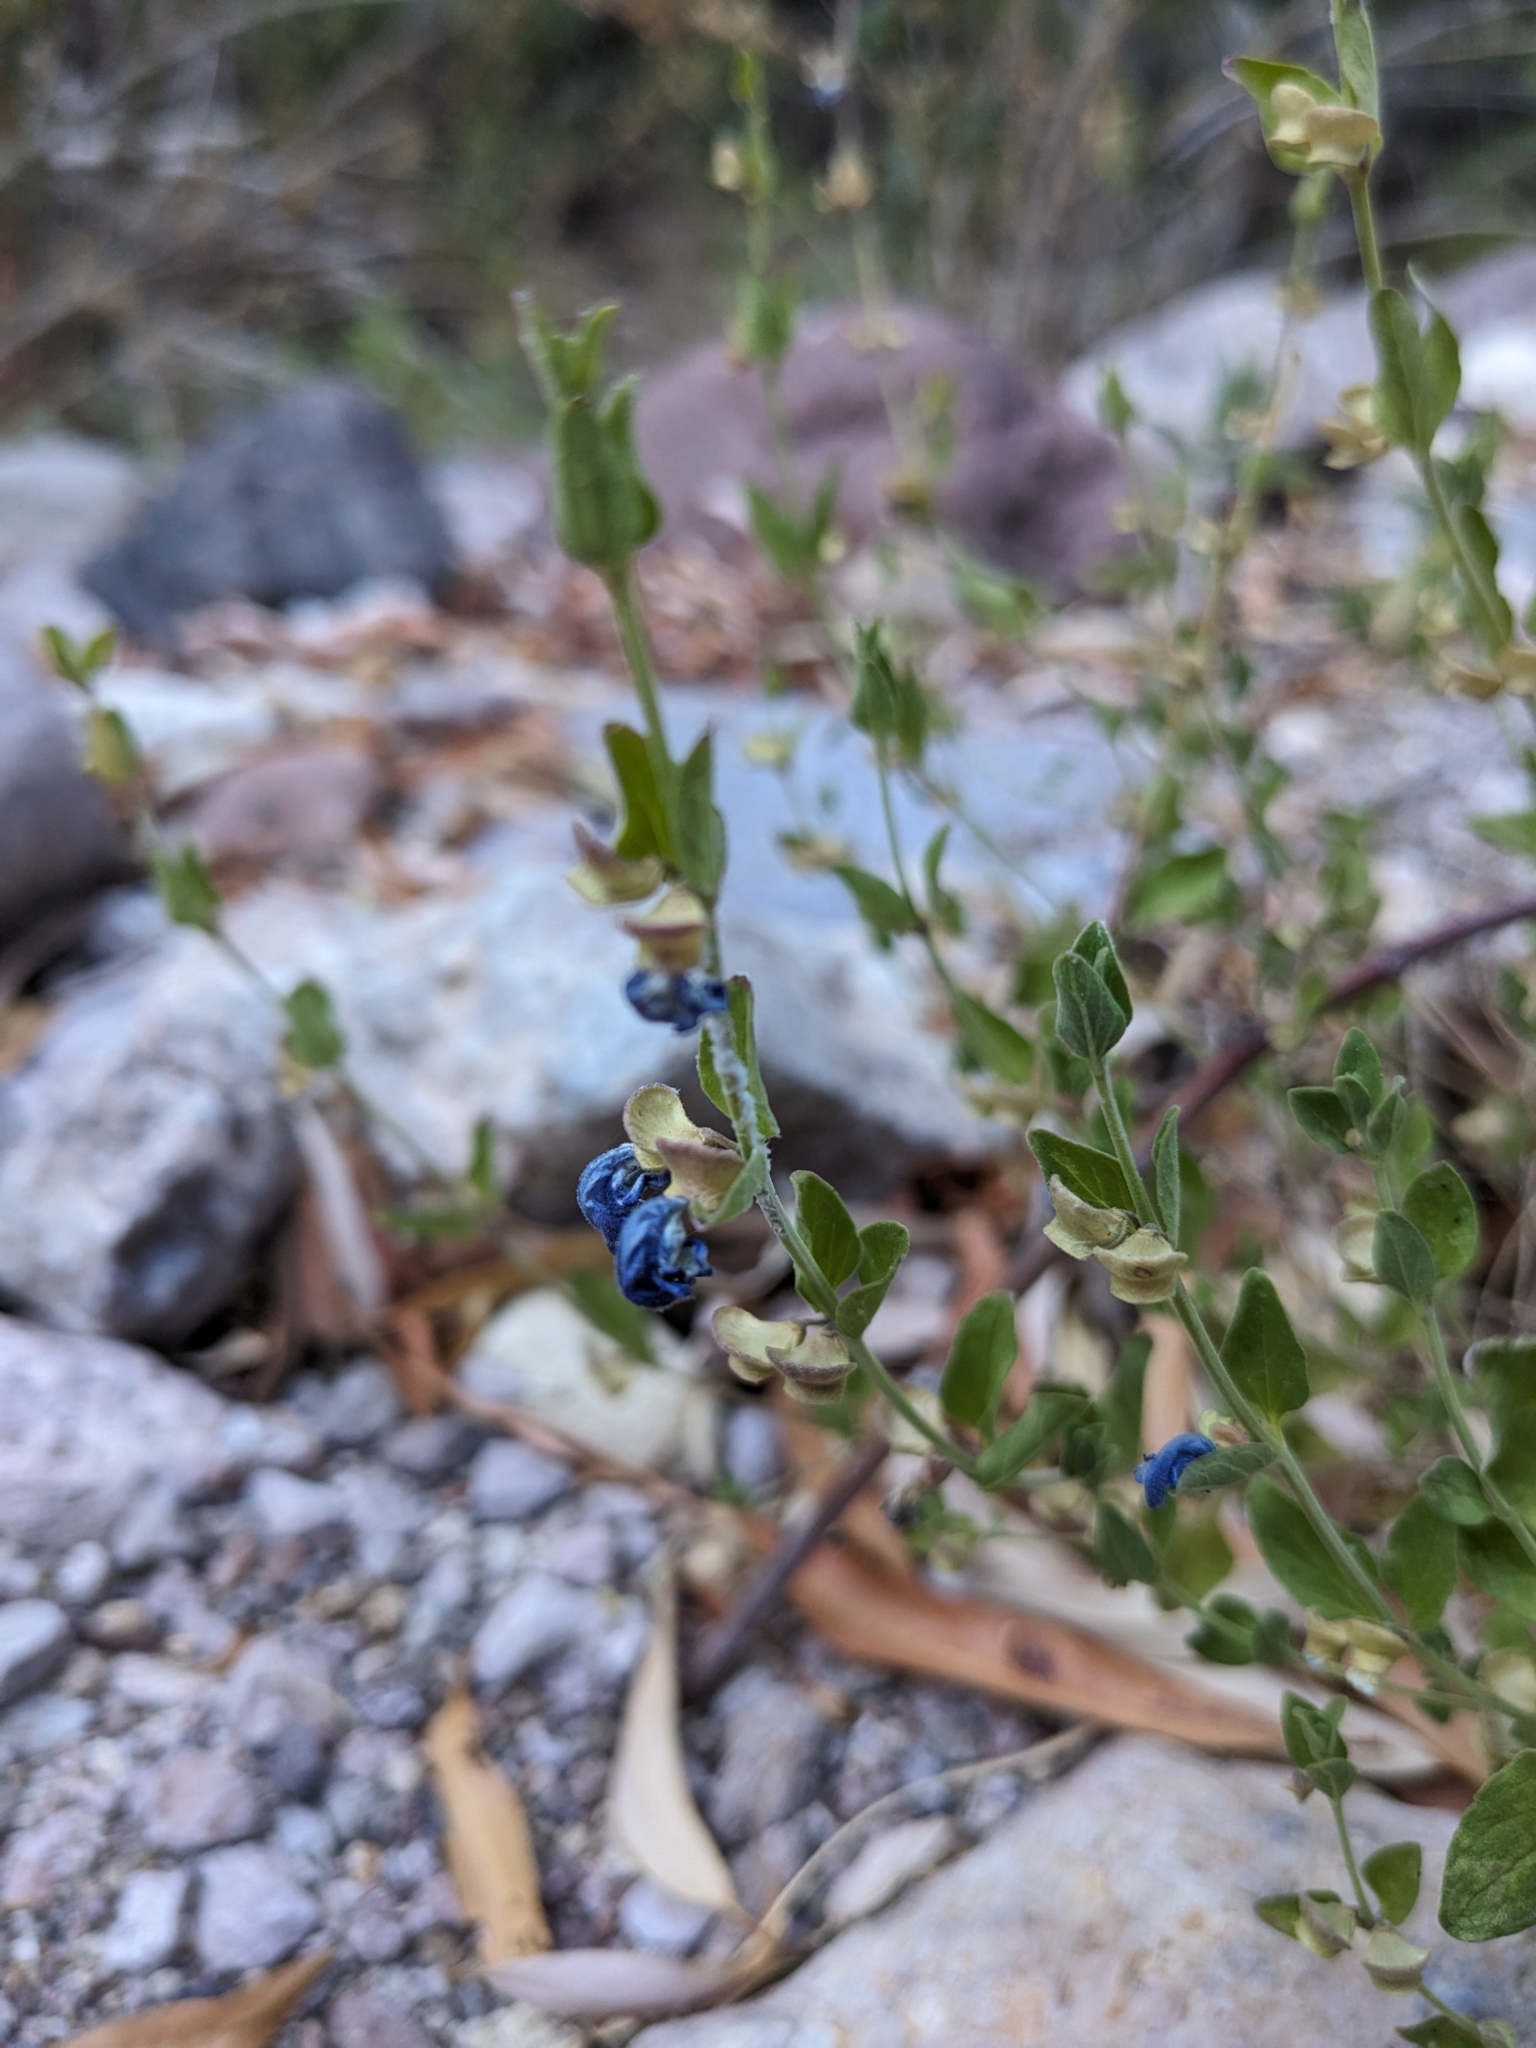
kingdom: Plantae
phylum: Tracheophyta
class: Magnoliopsida
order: Lamiales
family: Lamiaceae
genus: Scutellaria
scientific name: Scutellaria potosina
